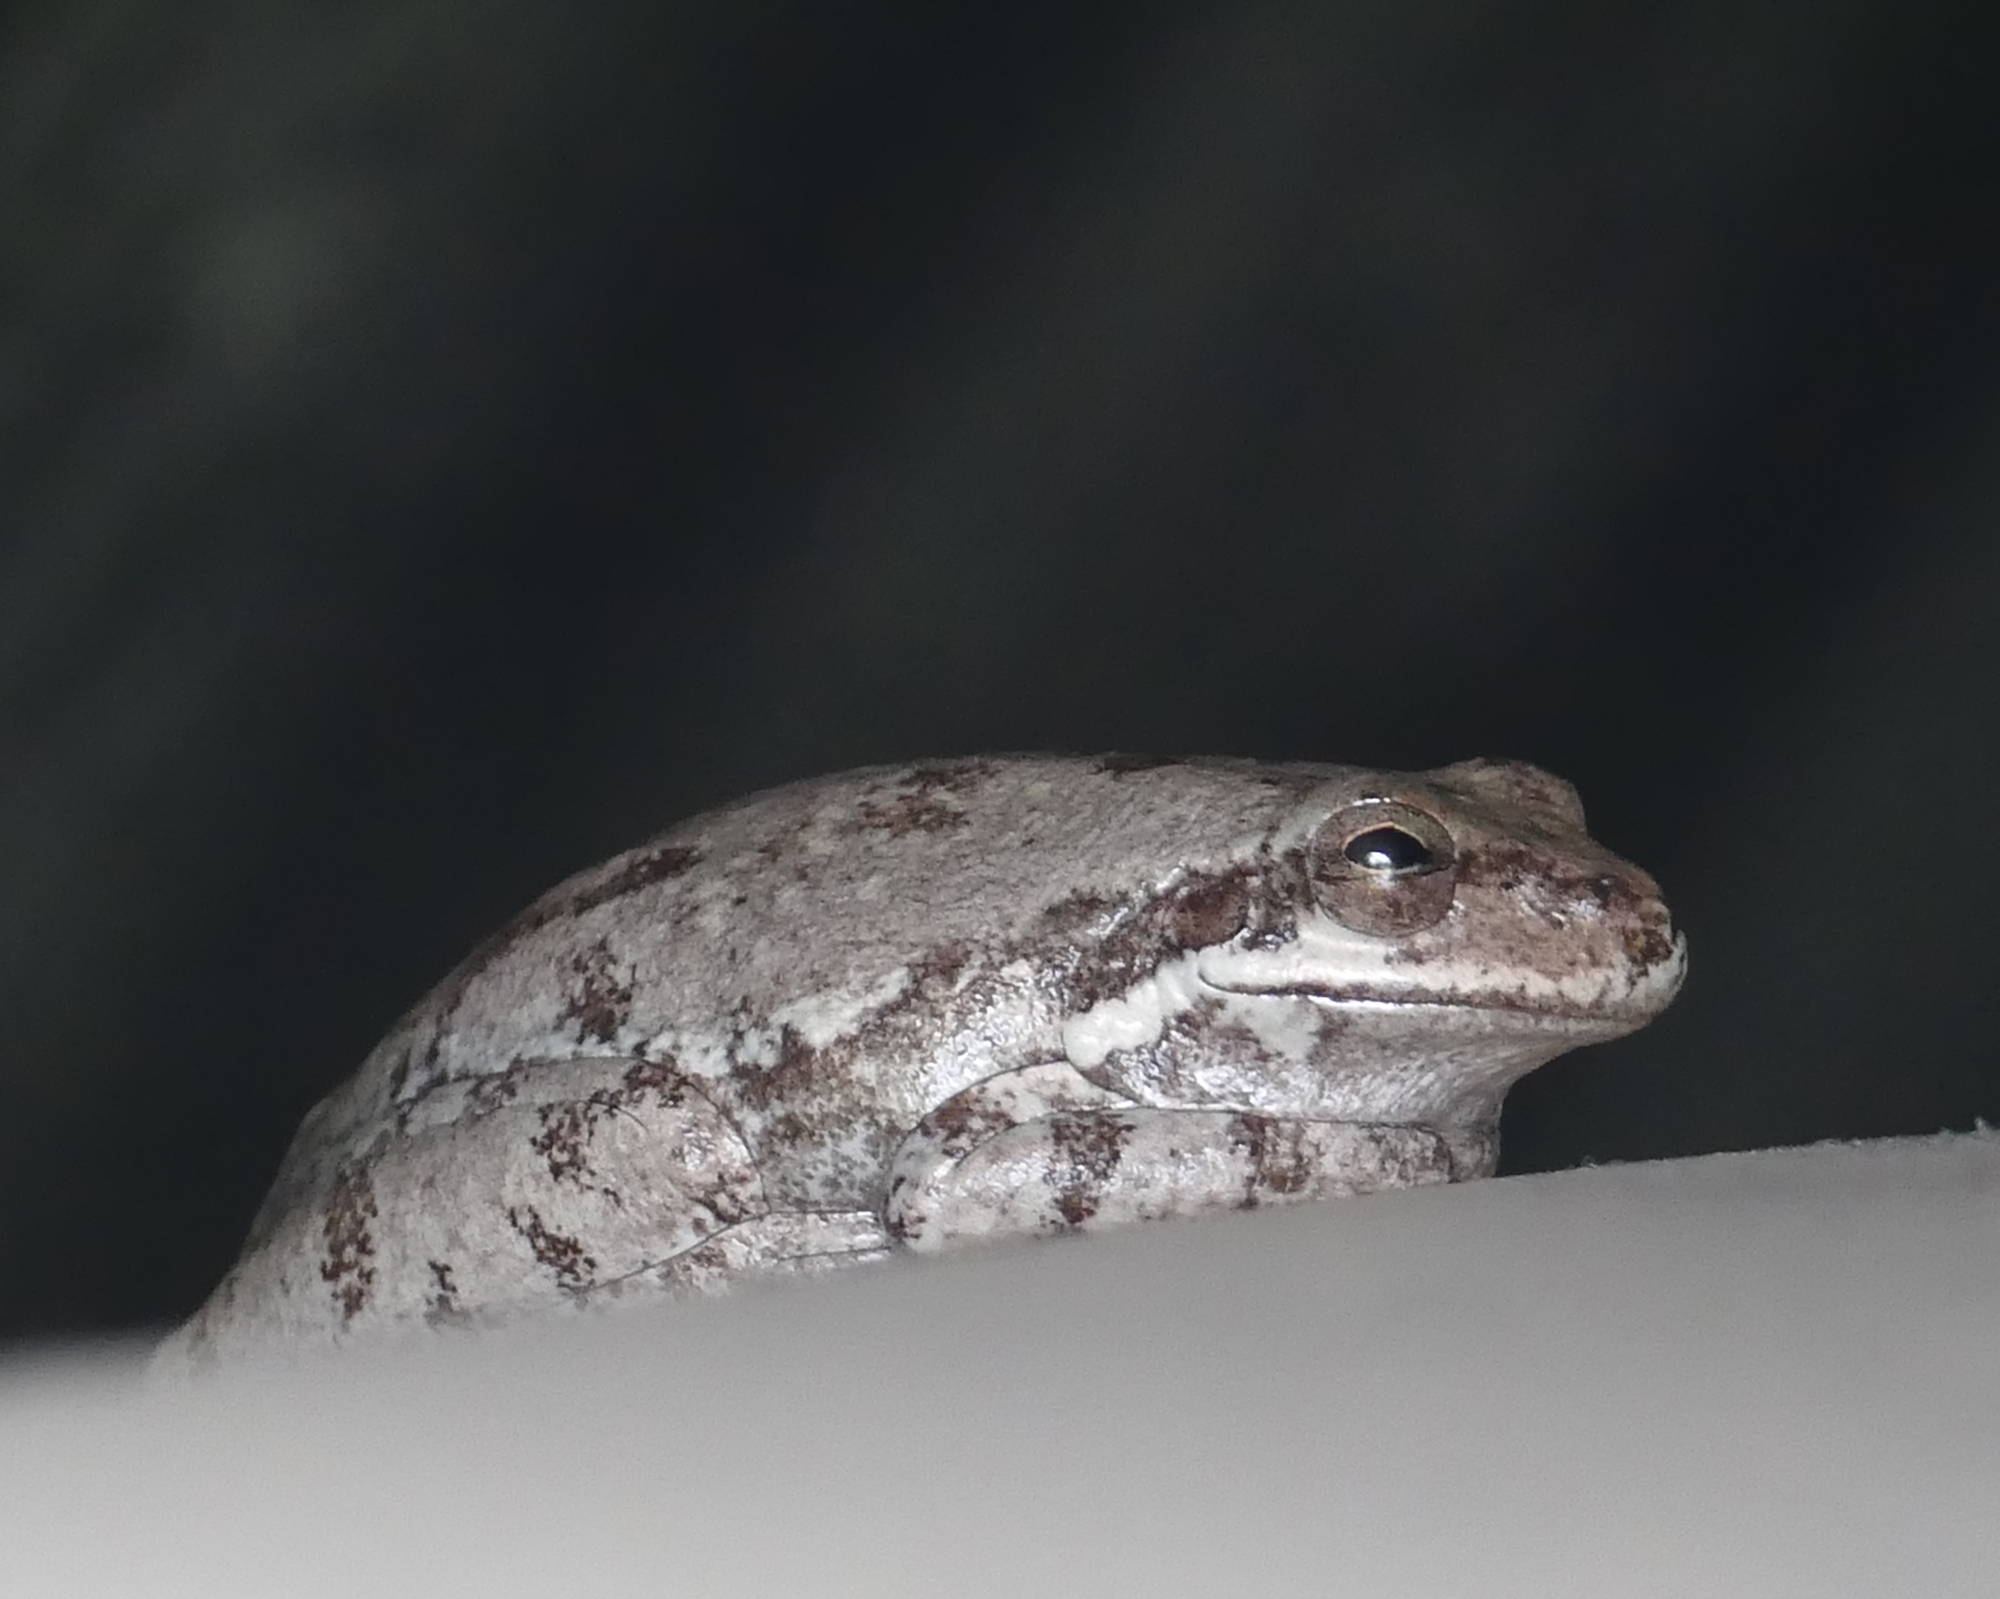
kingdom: Animalia
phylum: Chordata
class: Amphibia
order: Anura
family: Hylidae
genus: Dryophytes
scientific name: Dryophytes squirellus
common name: Squirrel treefrog
